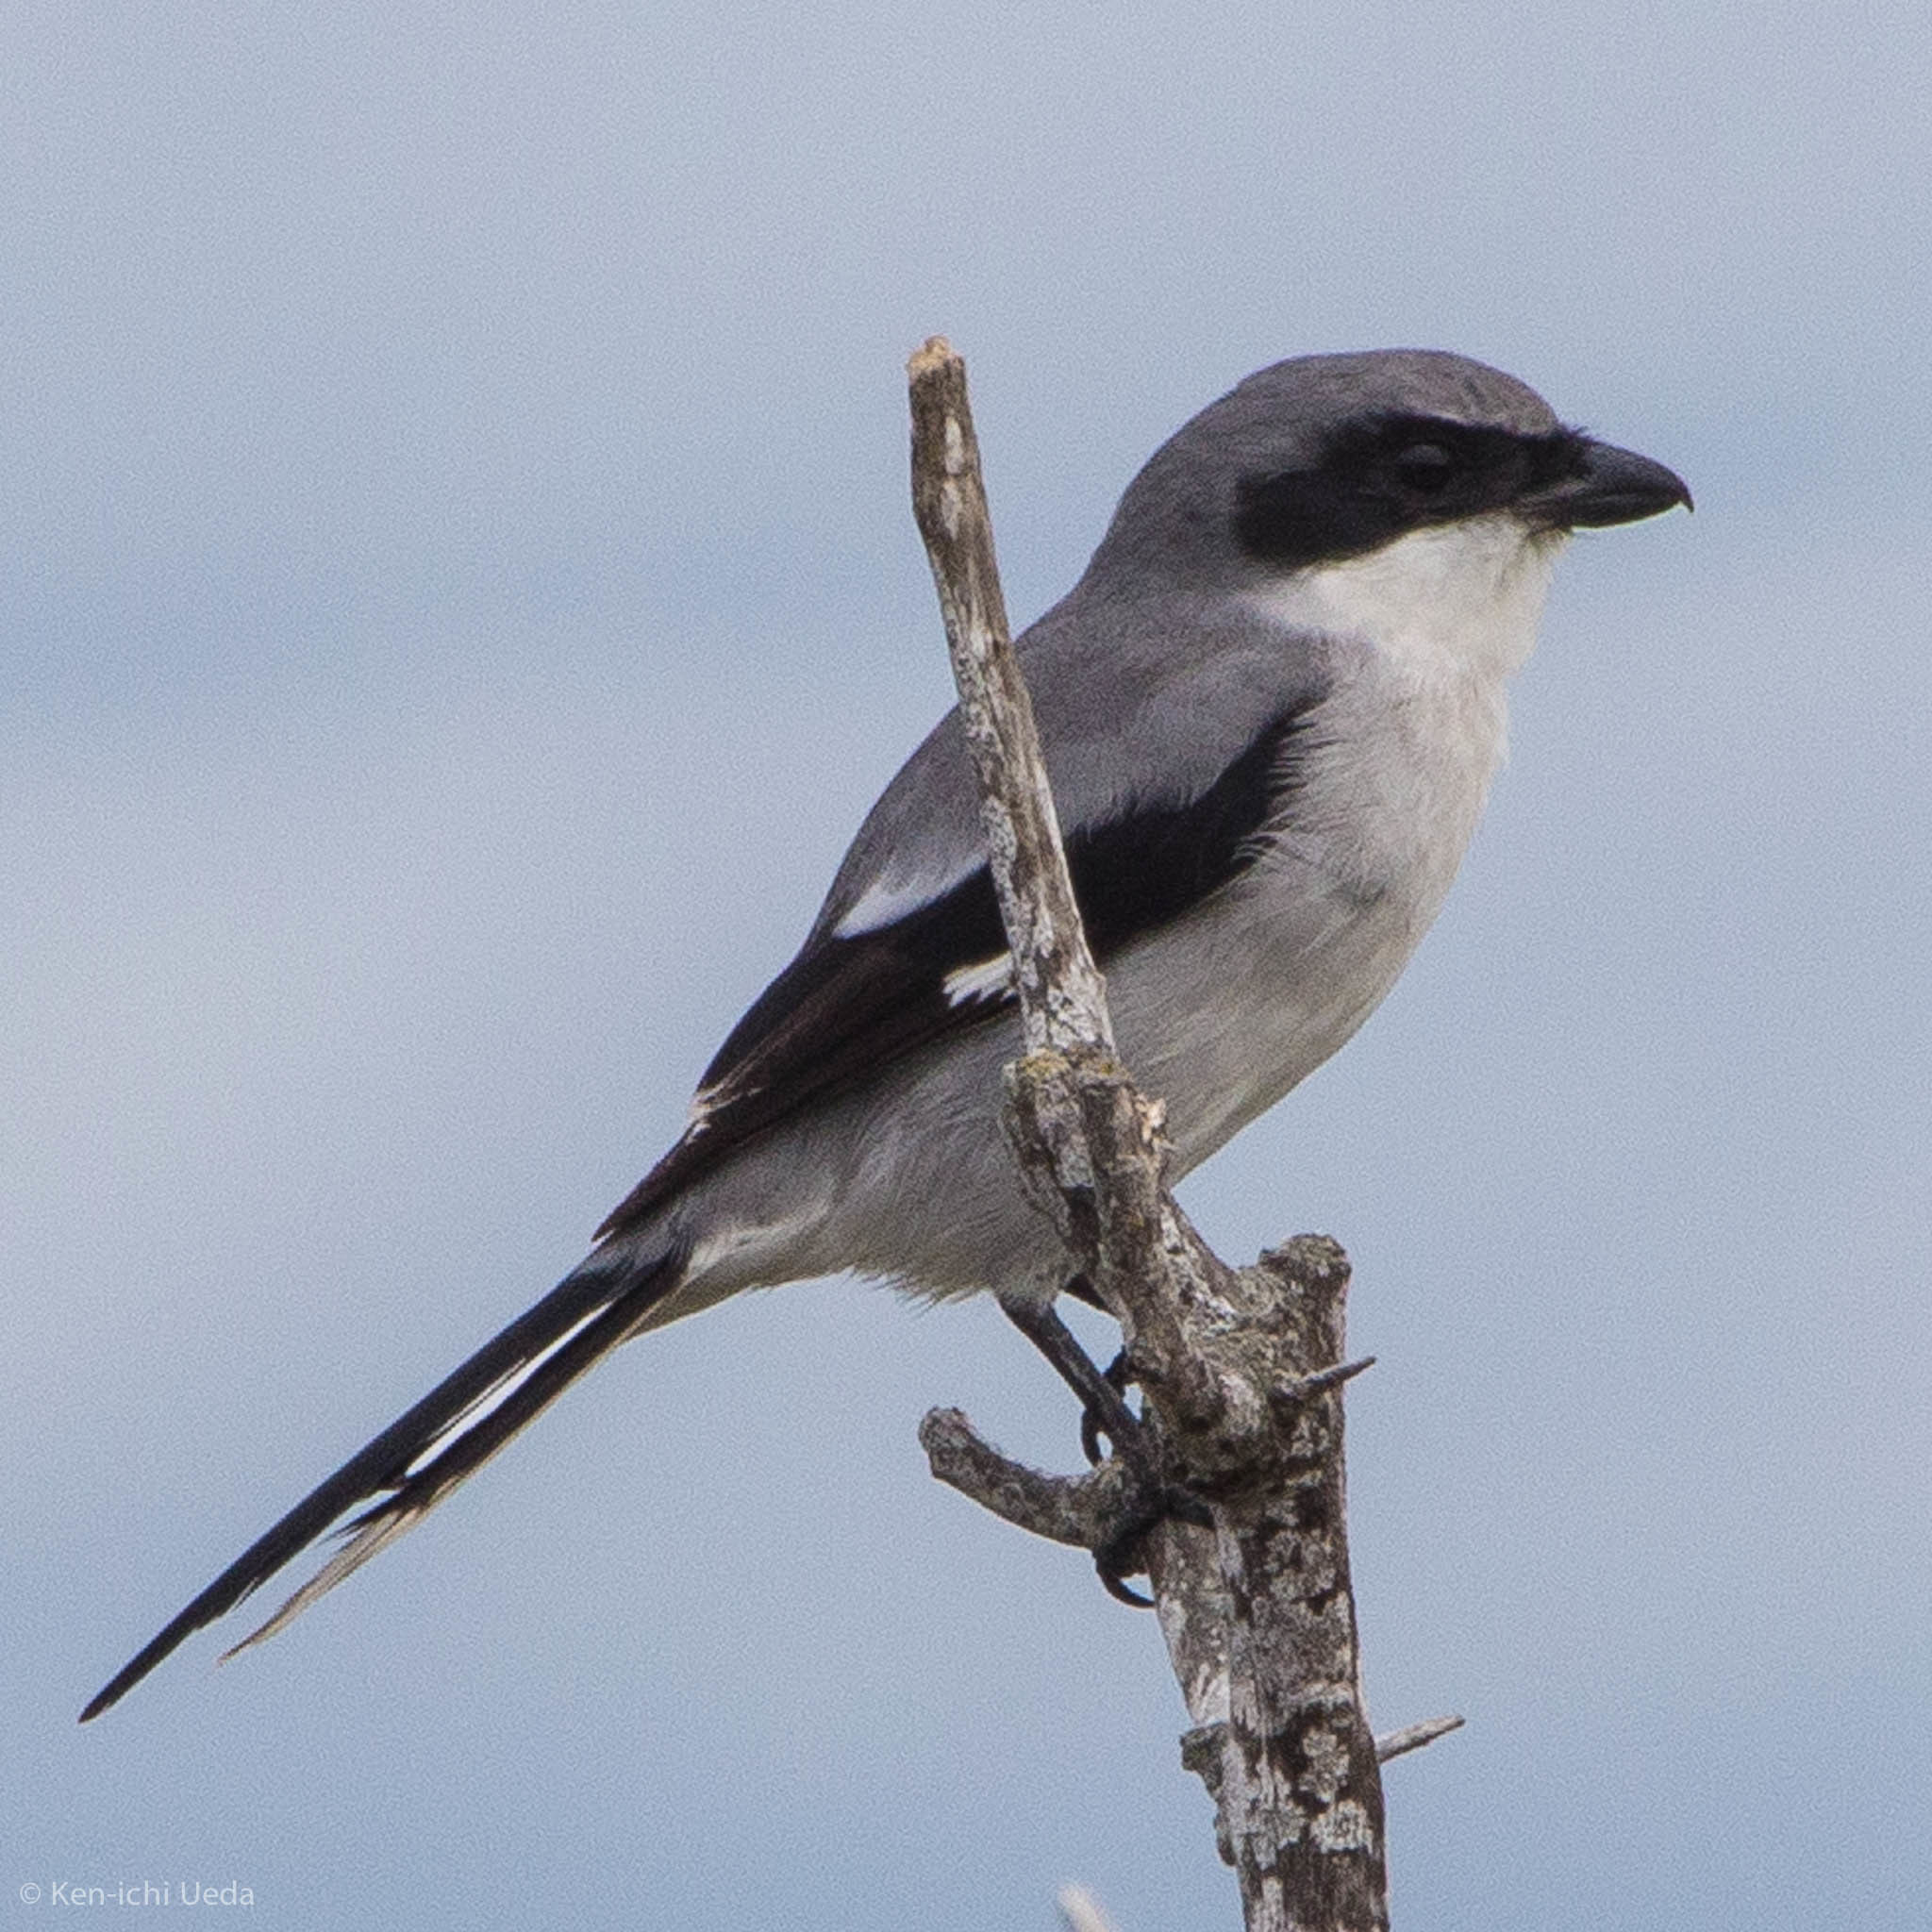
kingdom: Animalia
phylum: Chordata
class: Aves
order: Passeriformes
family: Laniidae
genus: Lanius
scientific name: Lanius ludovicianus
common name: Loggerhead shrike
